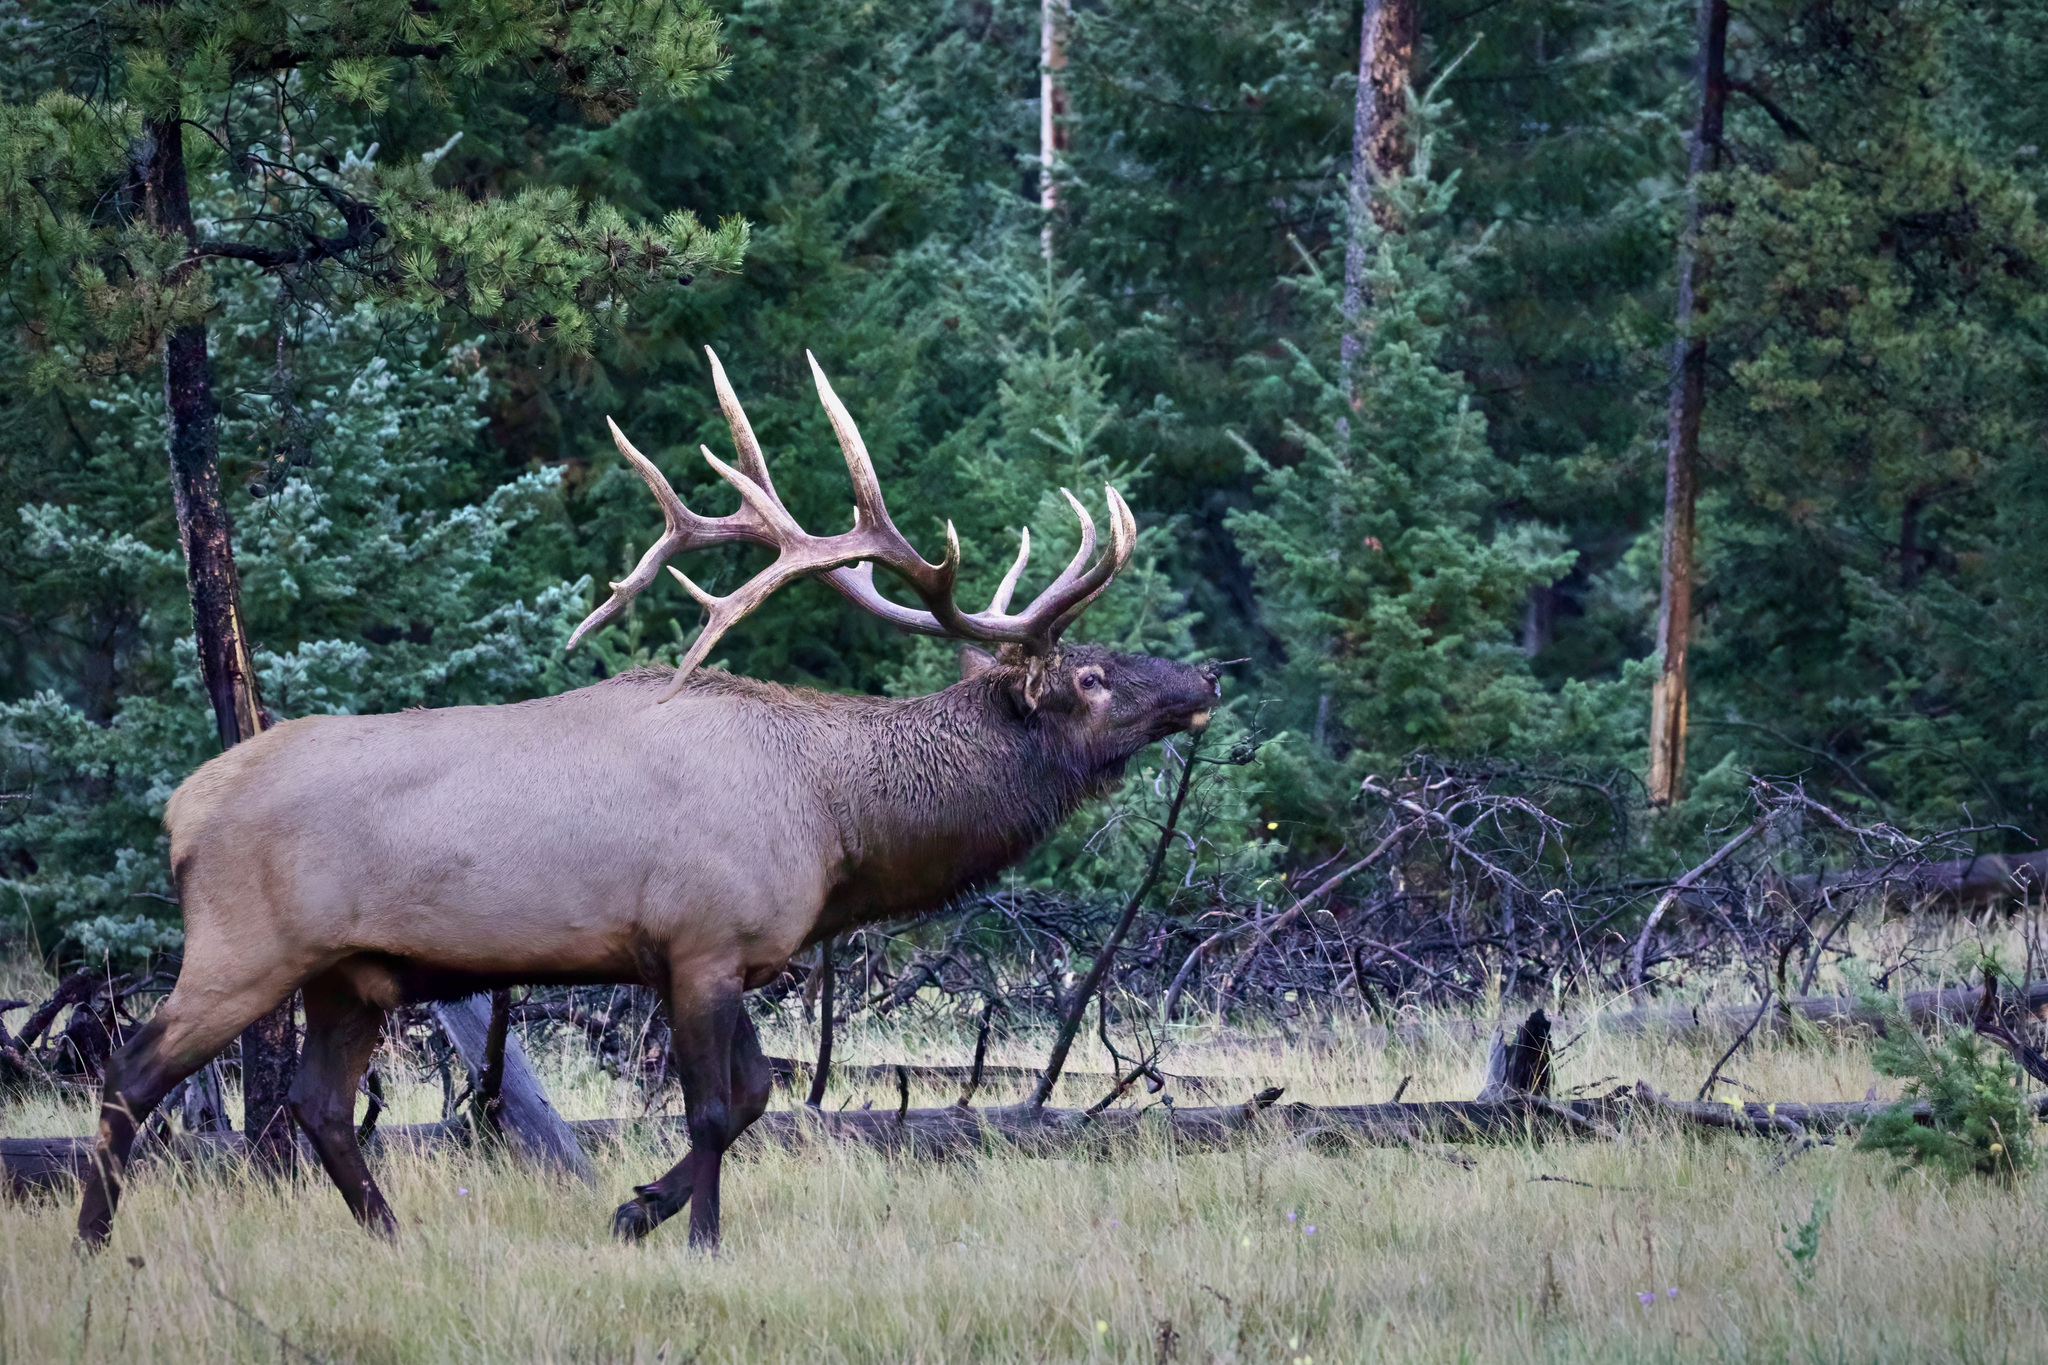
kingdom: Animalia
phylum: Chordata
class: Mammalia
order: Artiodactyla
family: Cervidae
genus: Cervus
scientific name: Cervus elaphus
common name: Red deer
